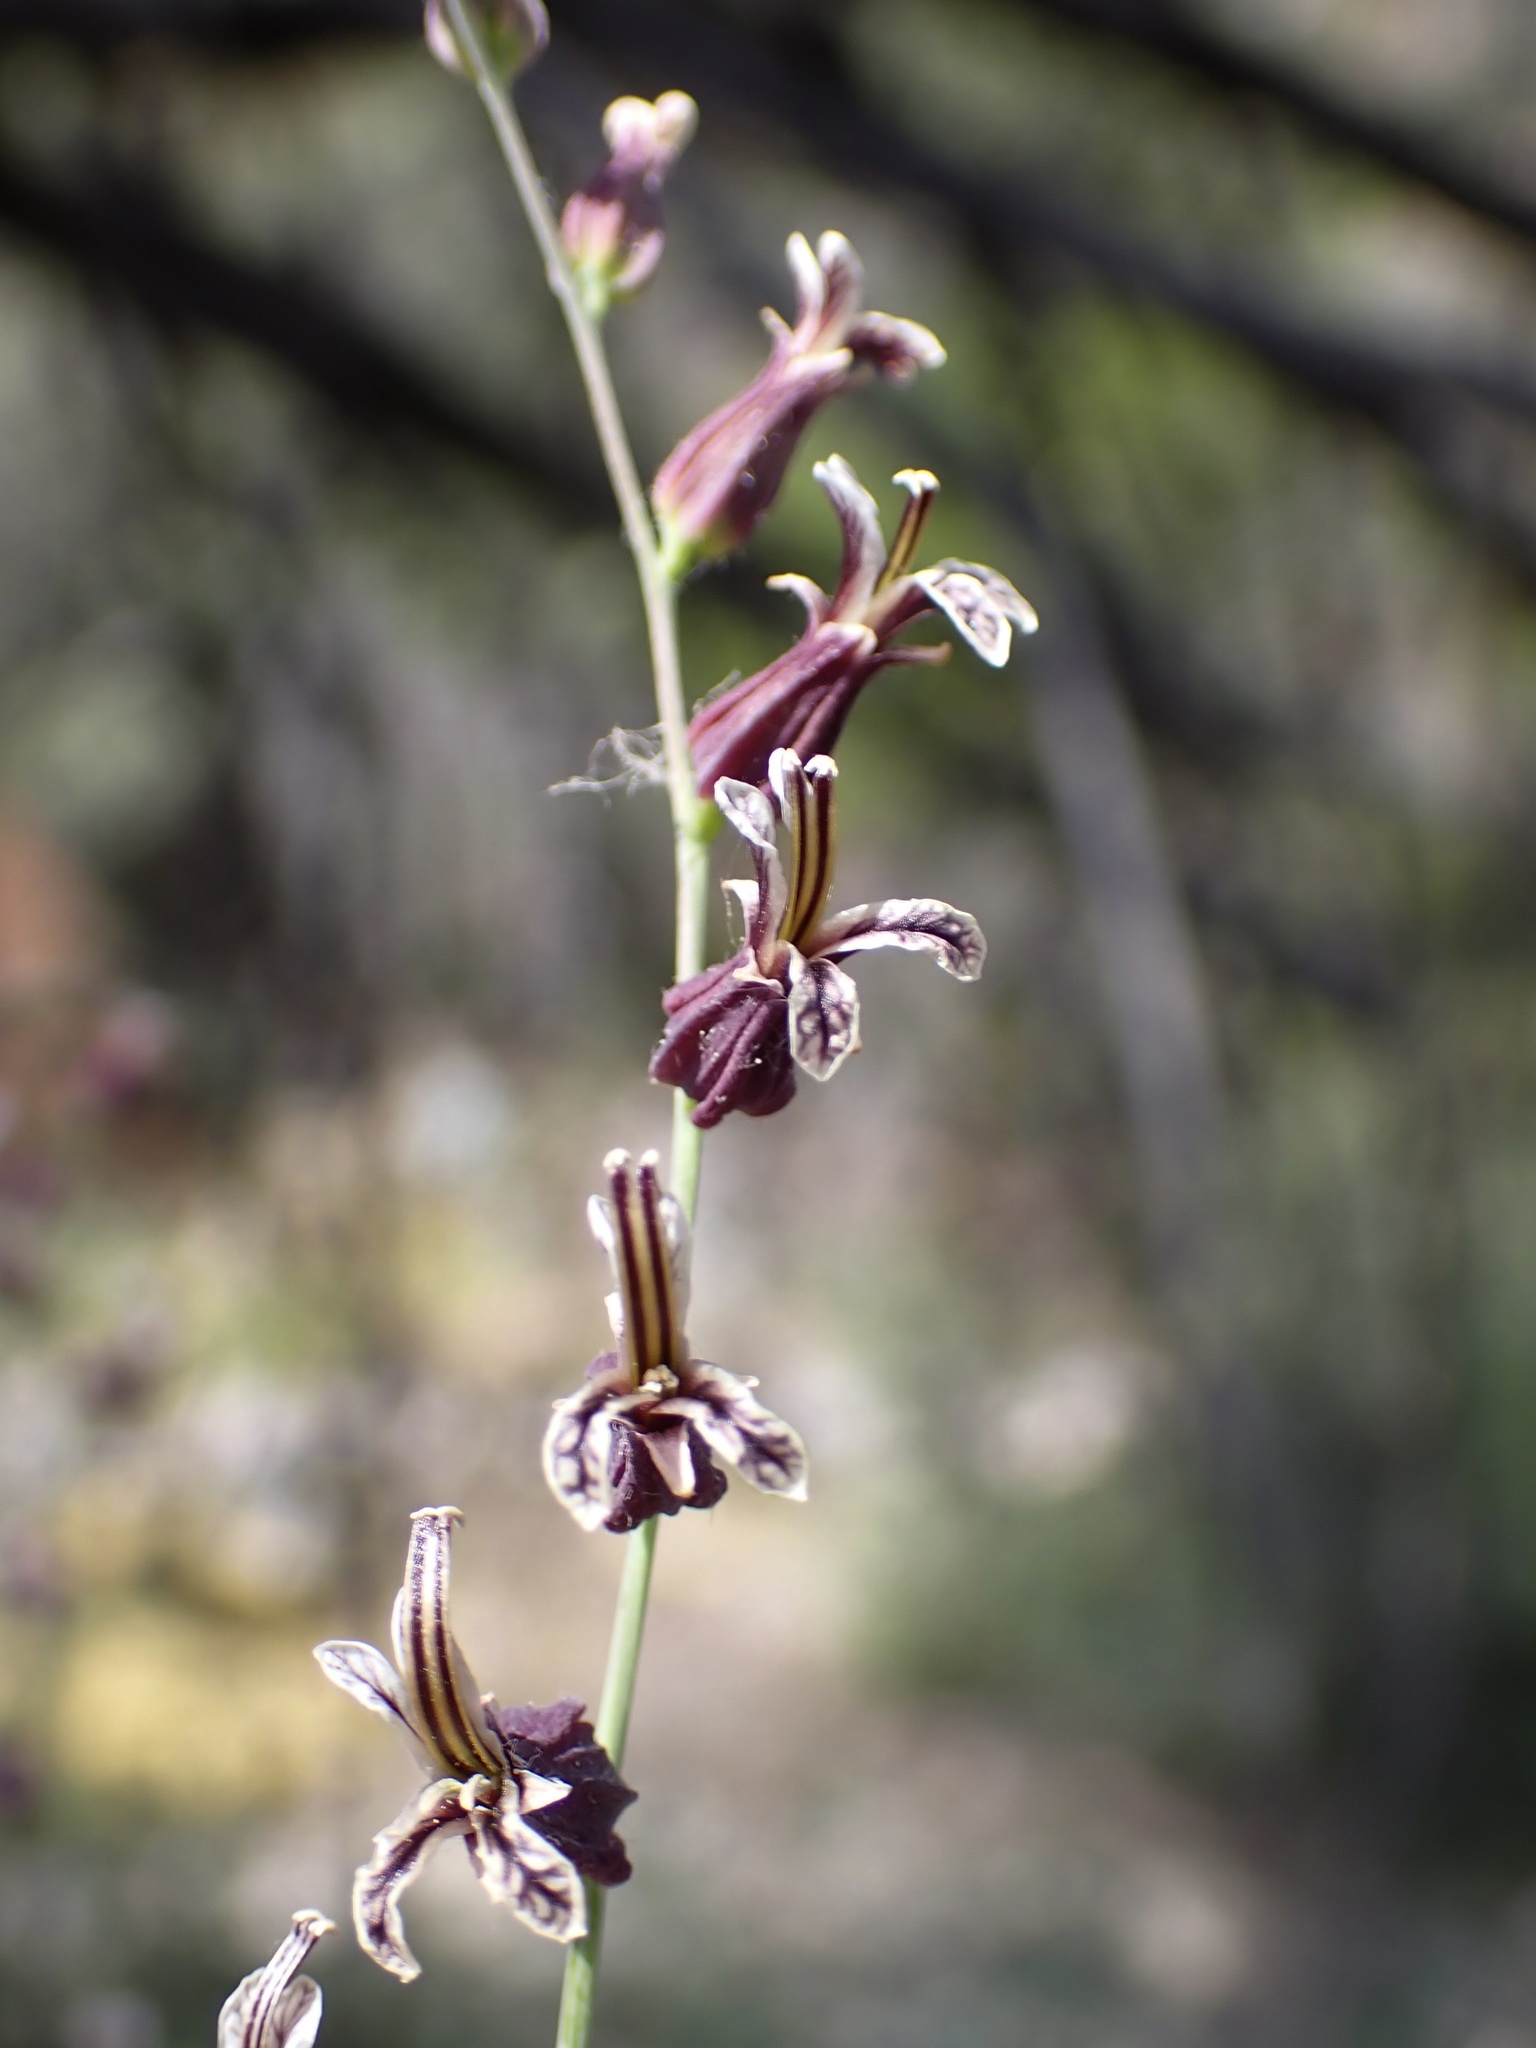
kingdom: Plantae
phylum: Tracheophyta
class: Magnoliopsida
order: Brassicales
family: Brassicaceae
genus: Streptanthus
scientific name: Streptanthus breweri
